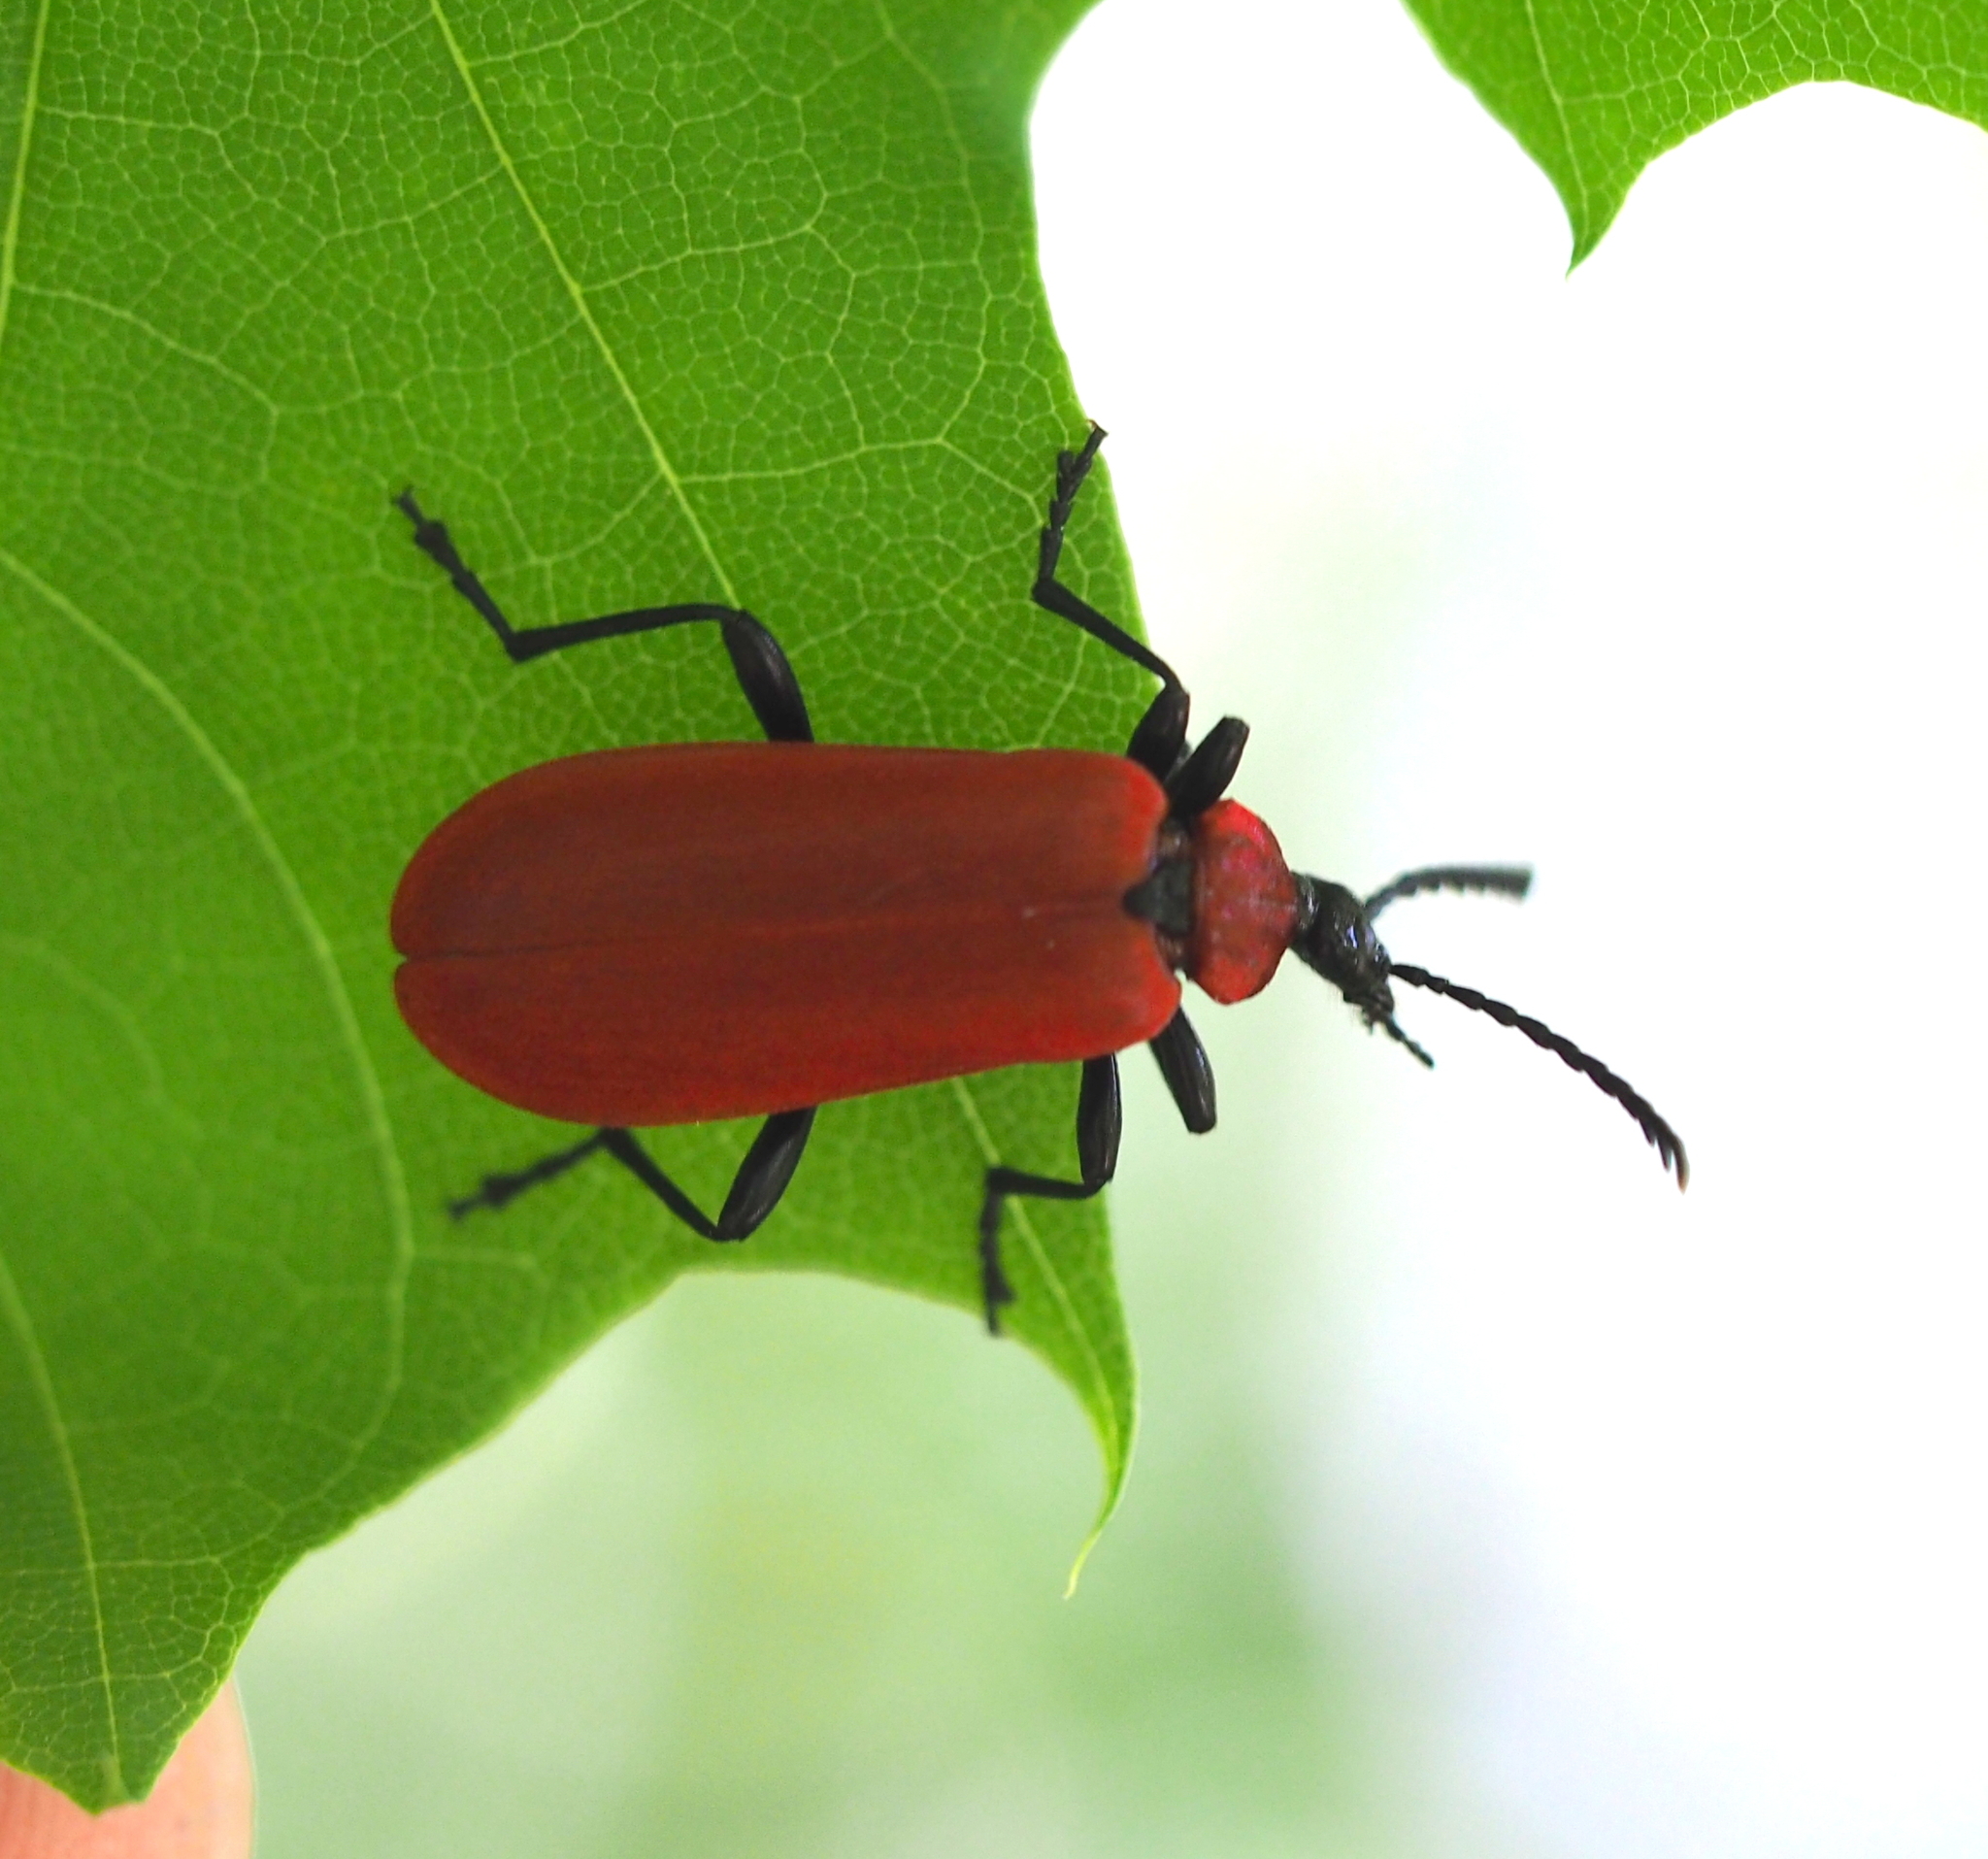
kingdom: Animalia
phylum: Arthropoda
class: Insecta
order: Coleoptera
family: Pyrochroidae
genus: Pyrochroa
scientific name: Pyrochroa coccinea
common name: Black-headed cardinal beetle
